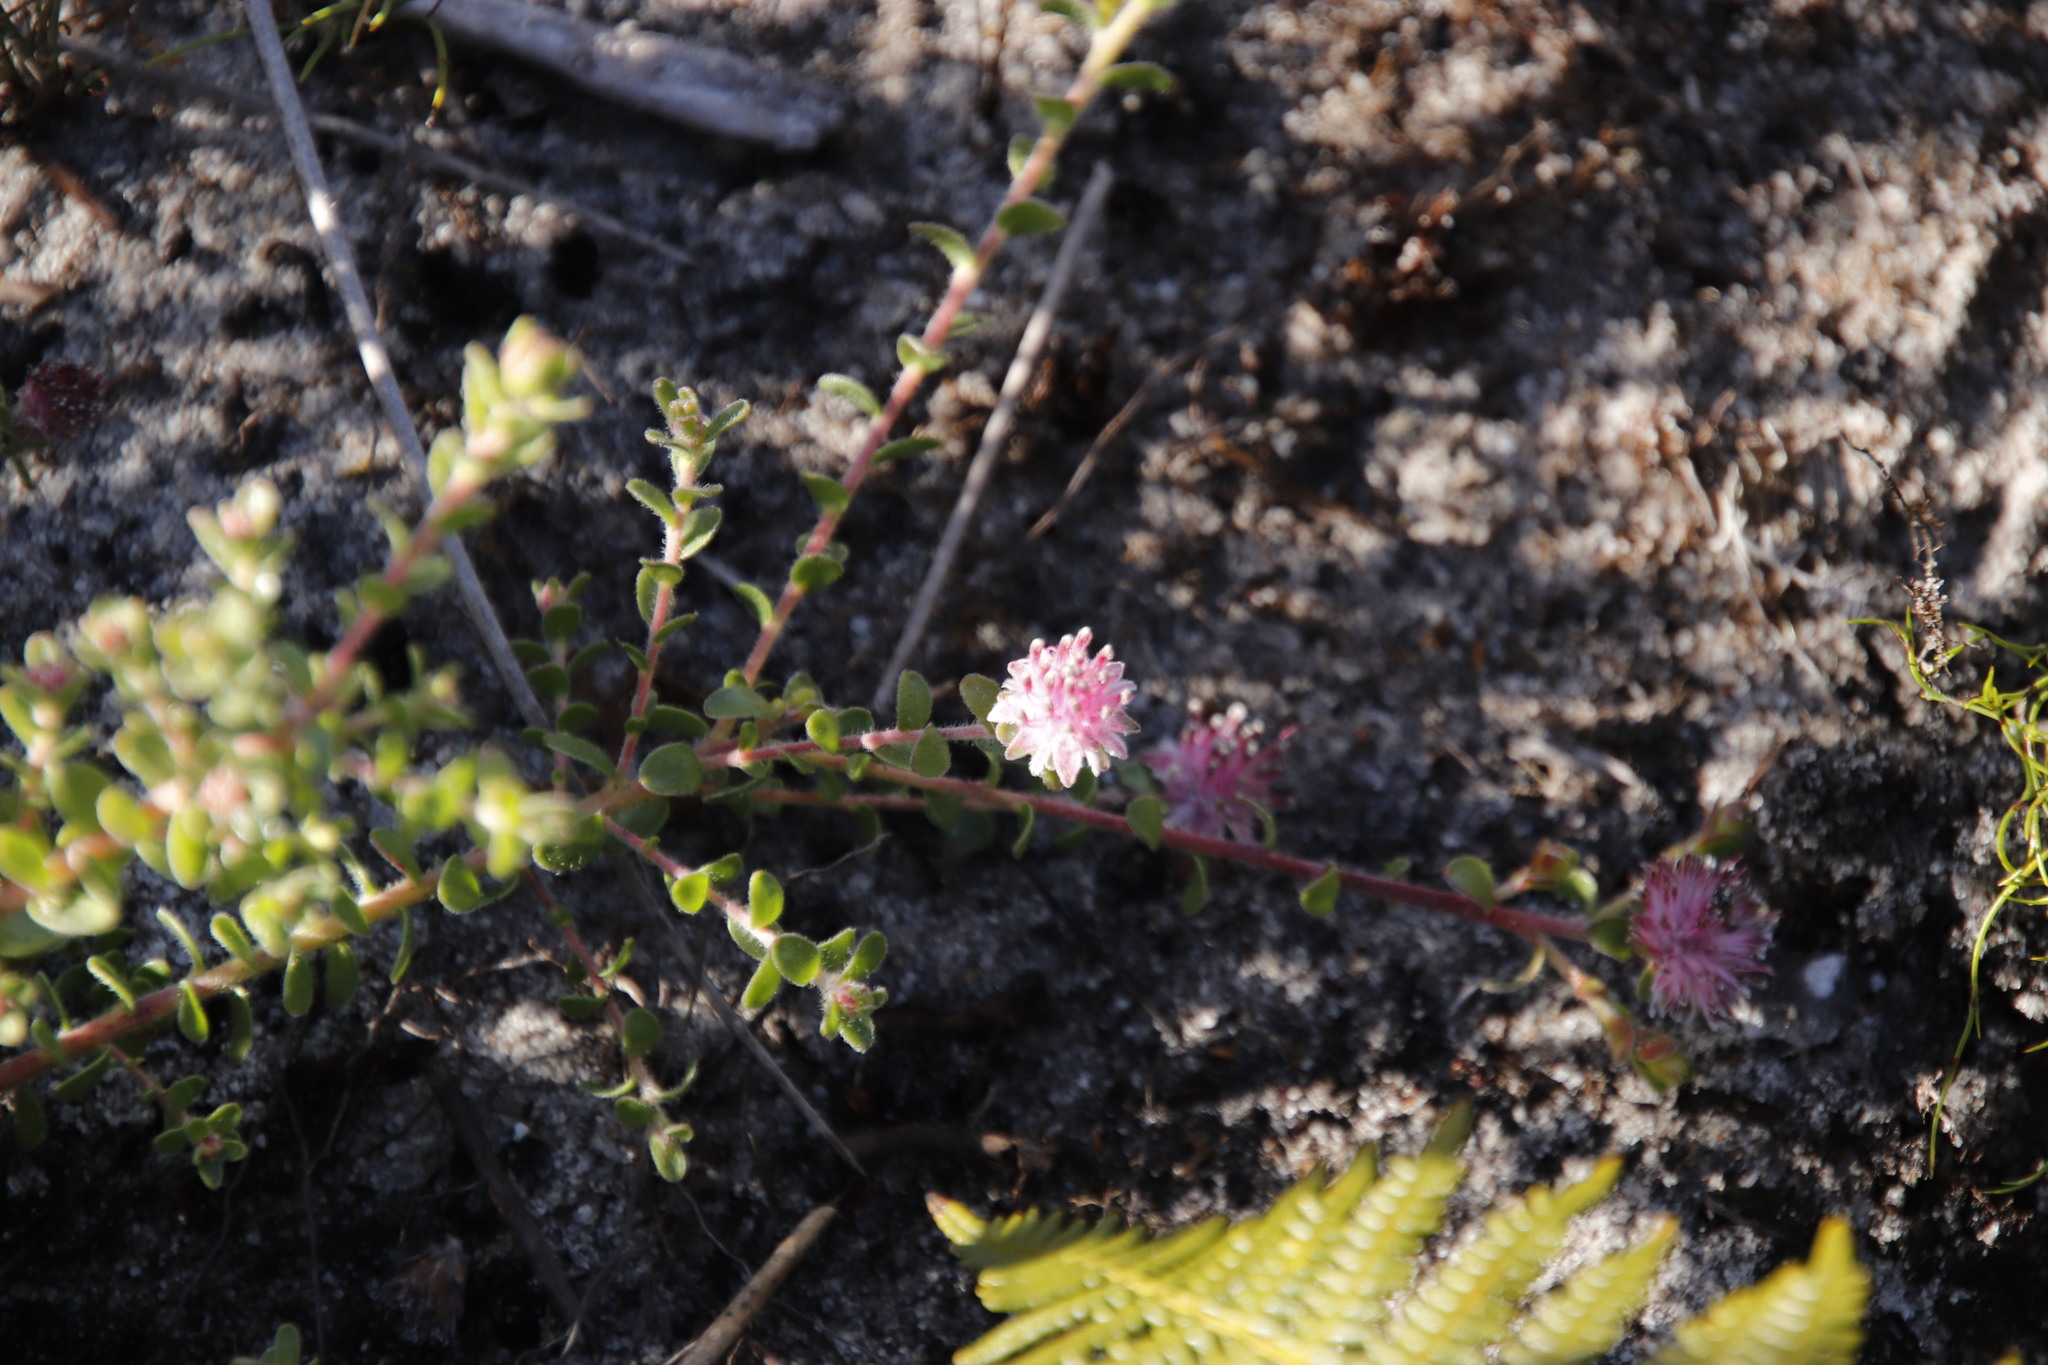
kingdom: Plantae
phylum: Tracheophyta
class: Magnoliopsida
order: Proteales
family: Proteaceae
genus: Diastella
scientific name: Diastella divaricata
